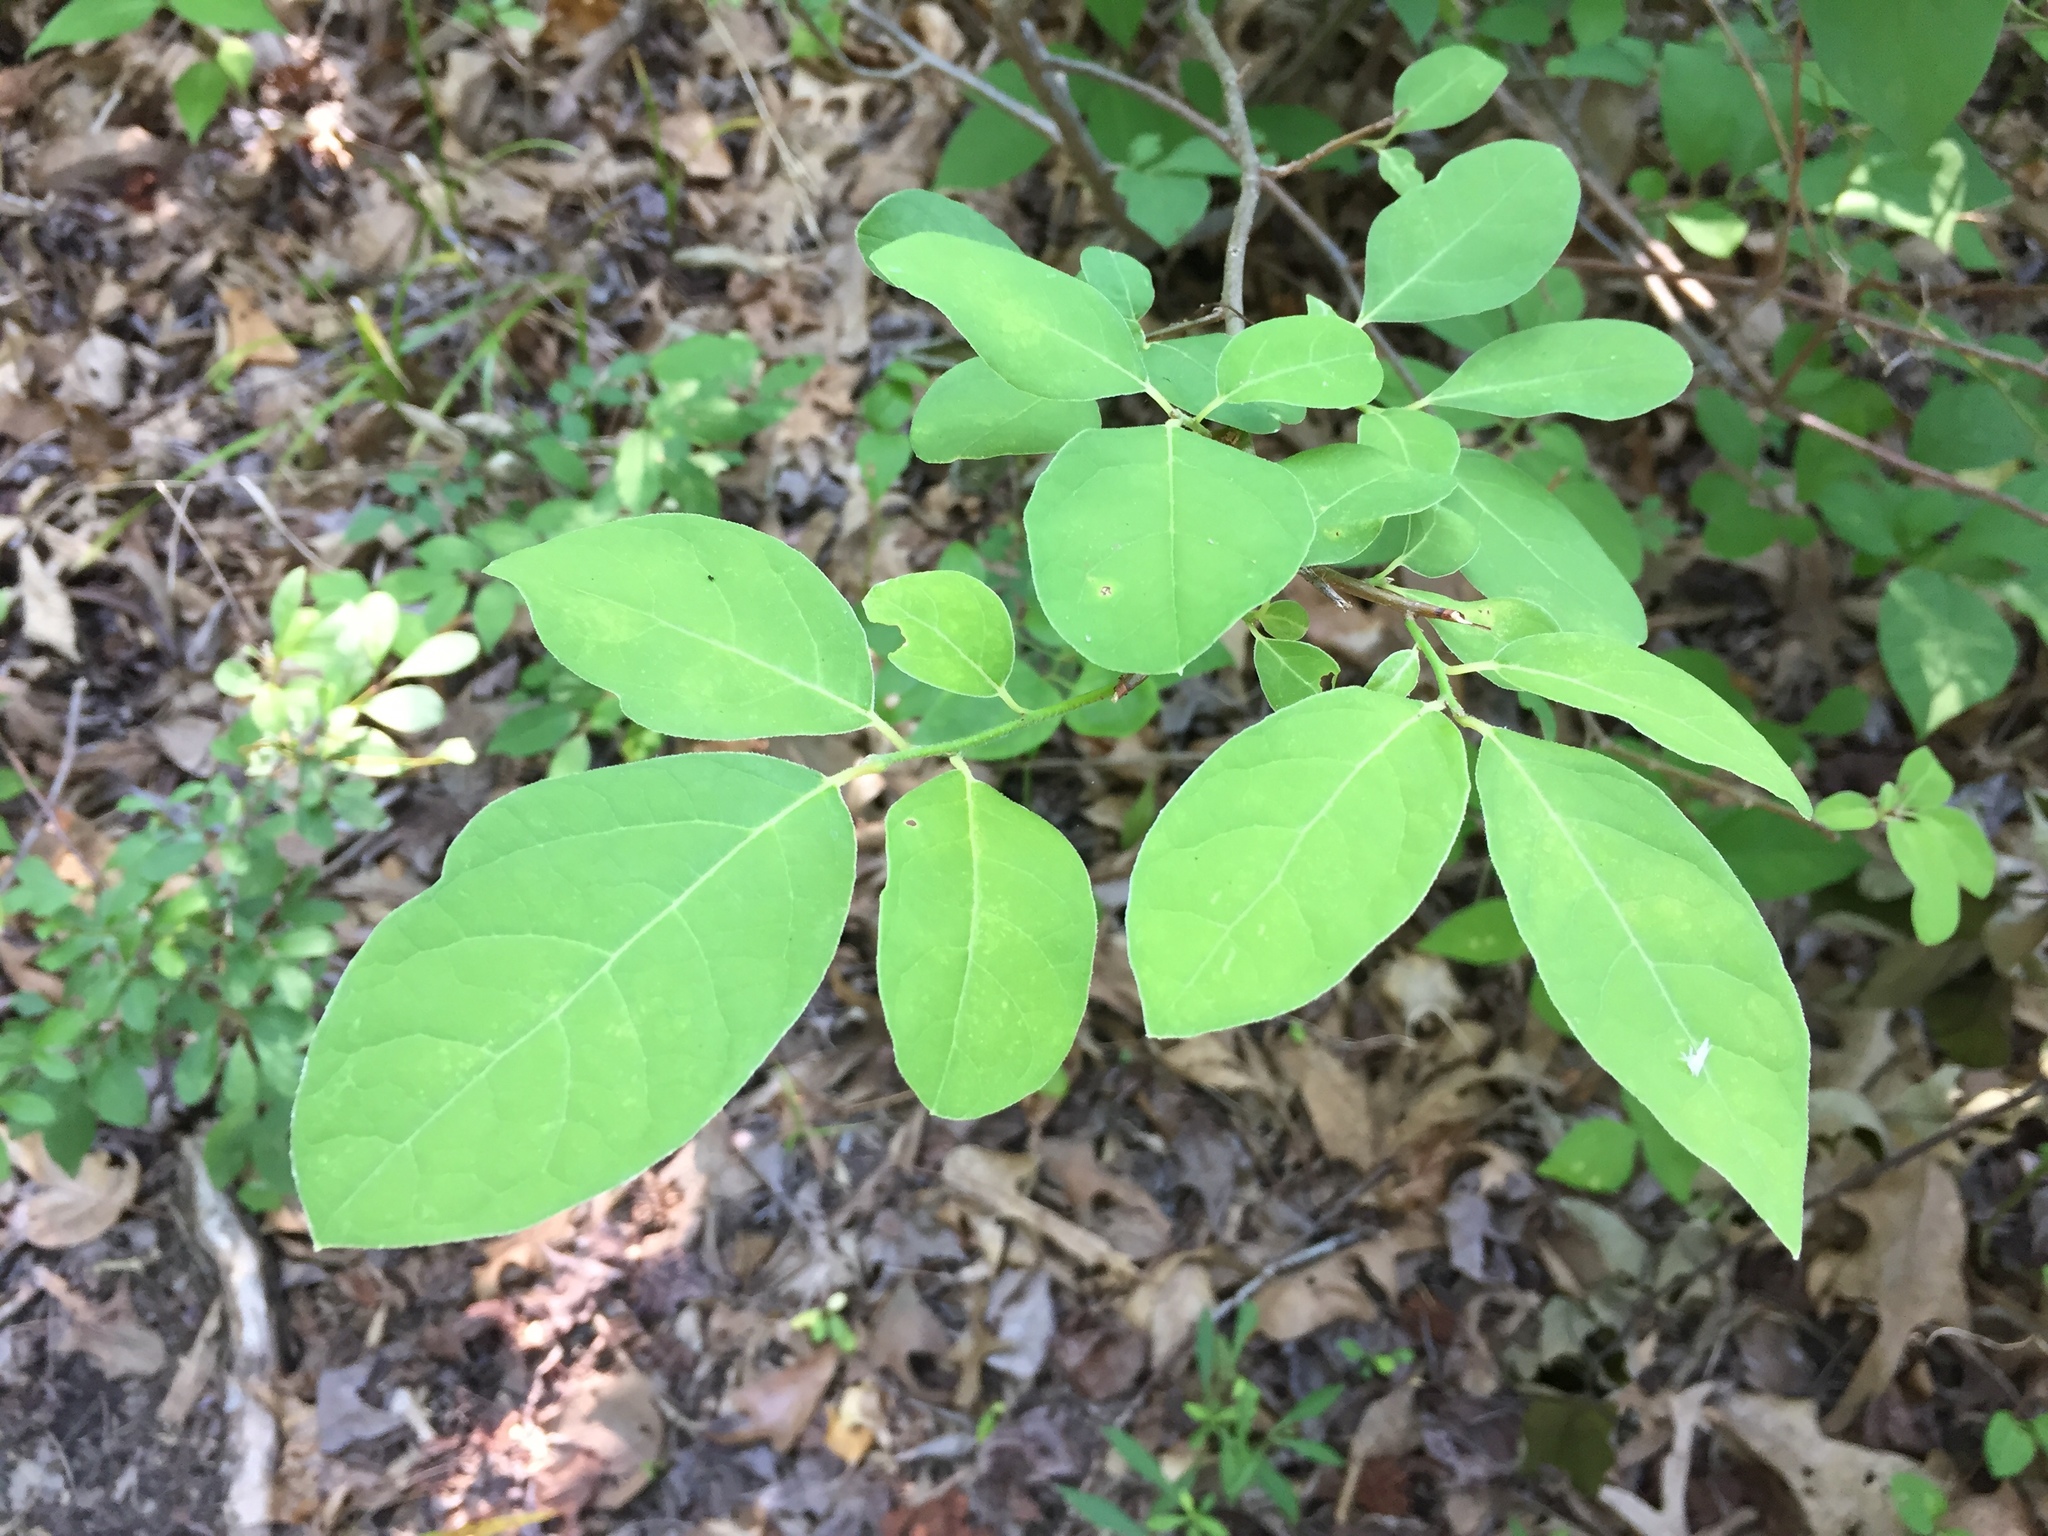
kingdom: Plantae
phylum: Tracheophyta
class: Magnoliopsida
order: Laurales
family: Lauraceae
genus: Lindera
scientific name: Lindera benzoin
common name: Spicebush
